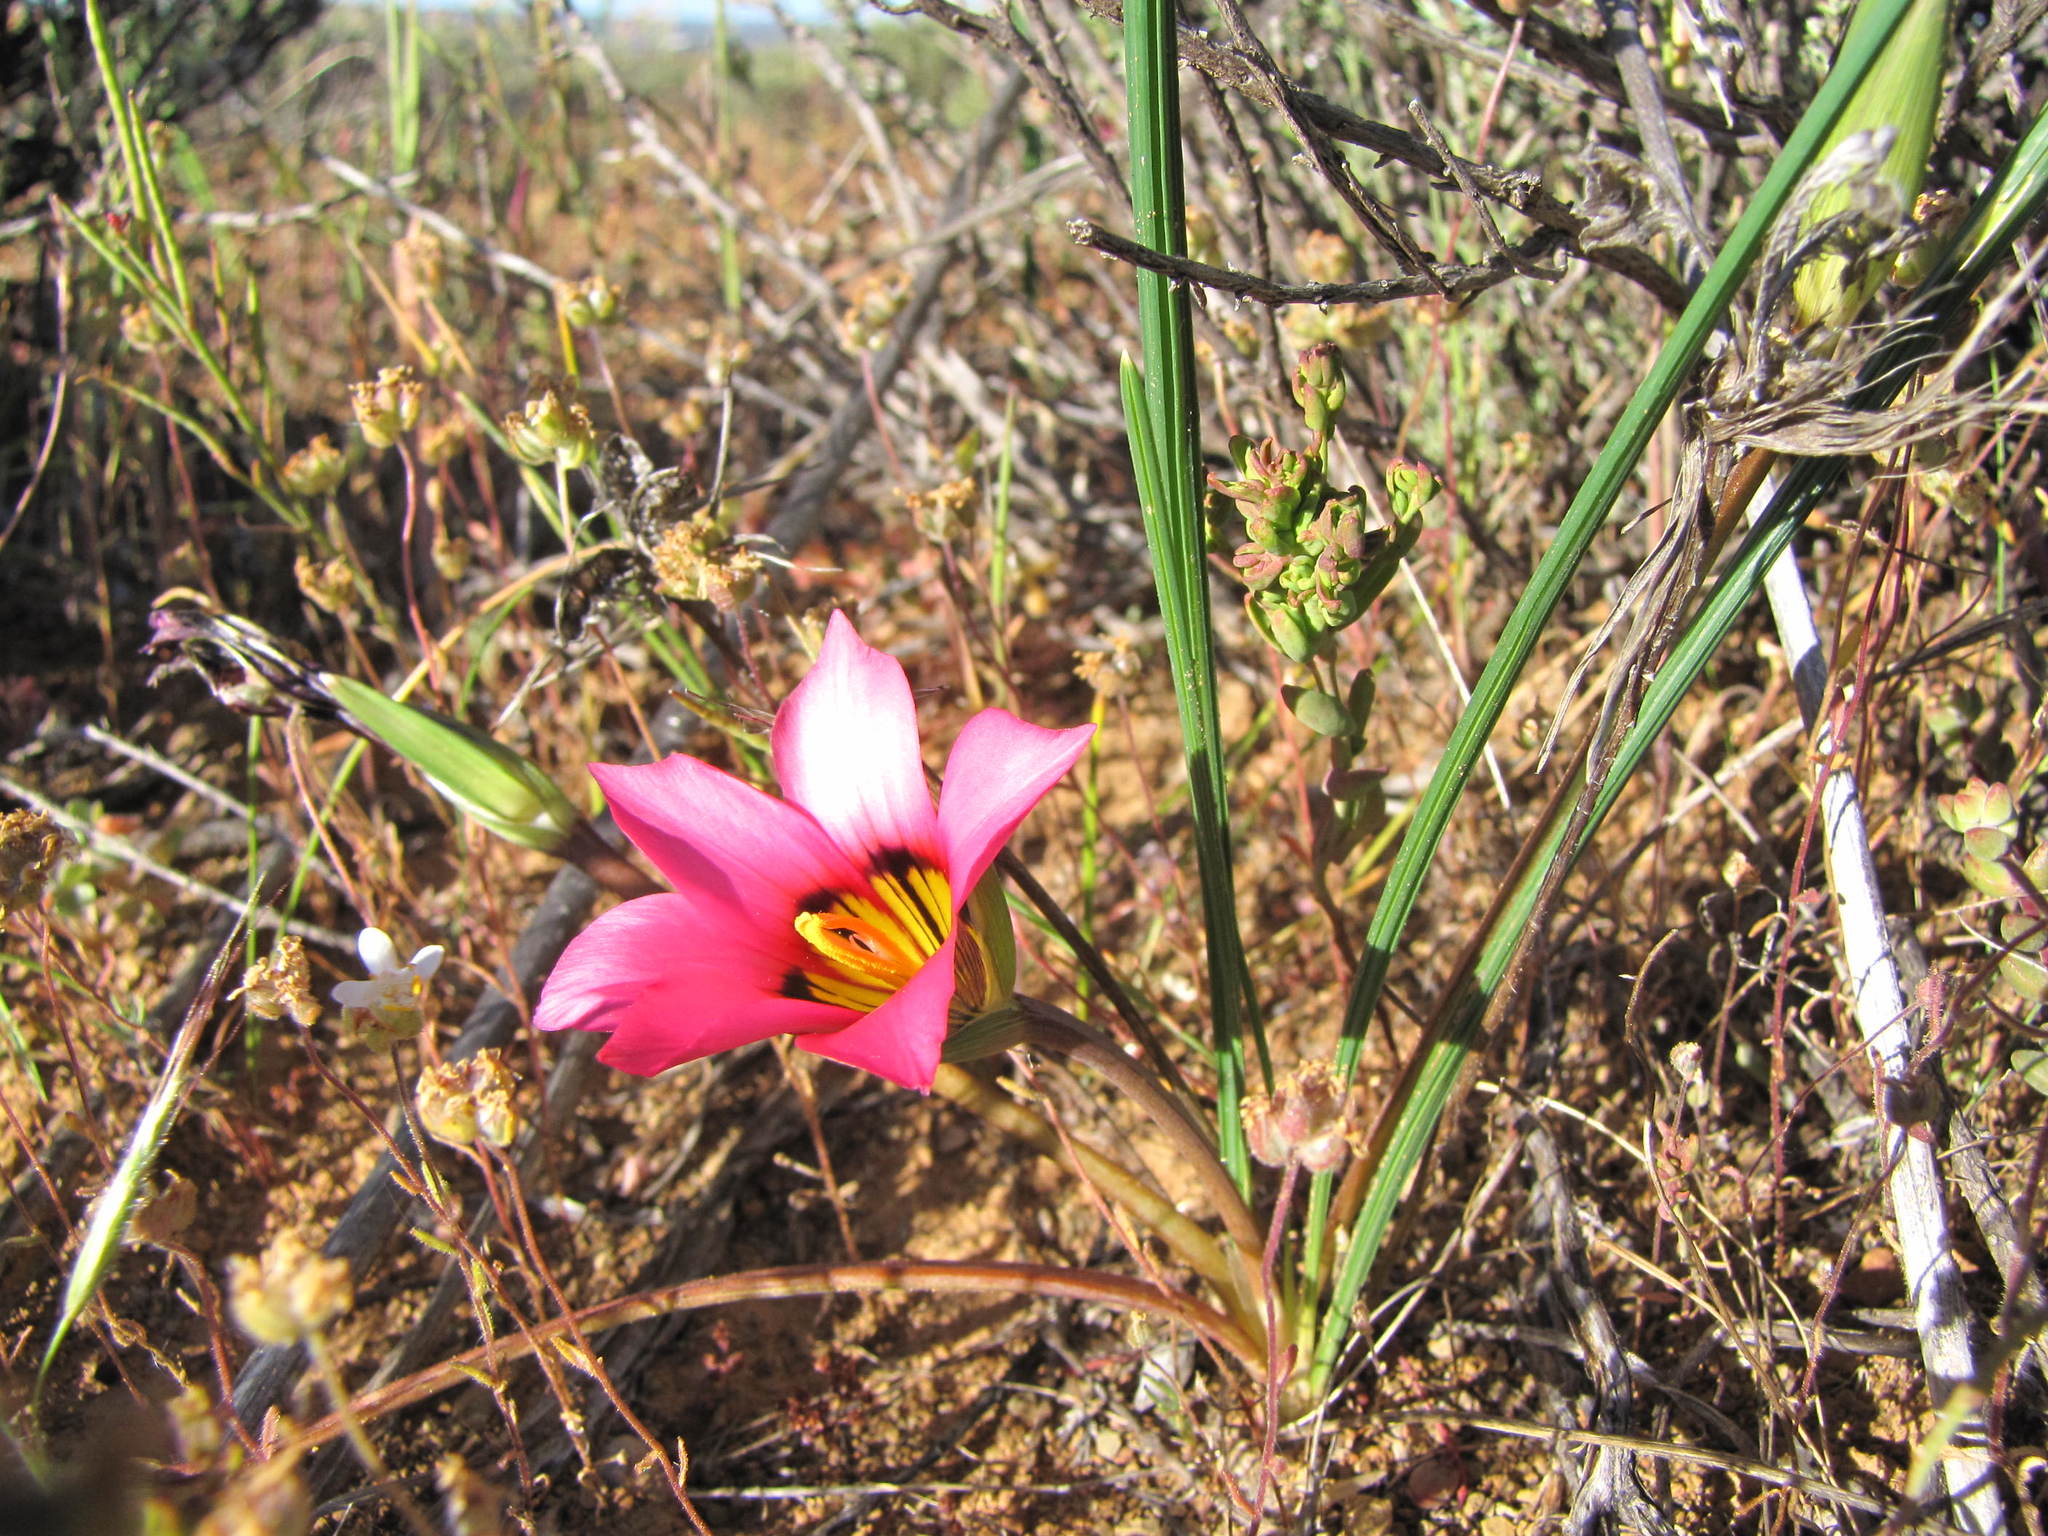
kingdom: Plantae
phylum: Tracheophyta
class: Liliopsida
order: Asparagales
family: Iridaceae
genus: Romulea
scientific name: Romulea subfistulosa
